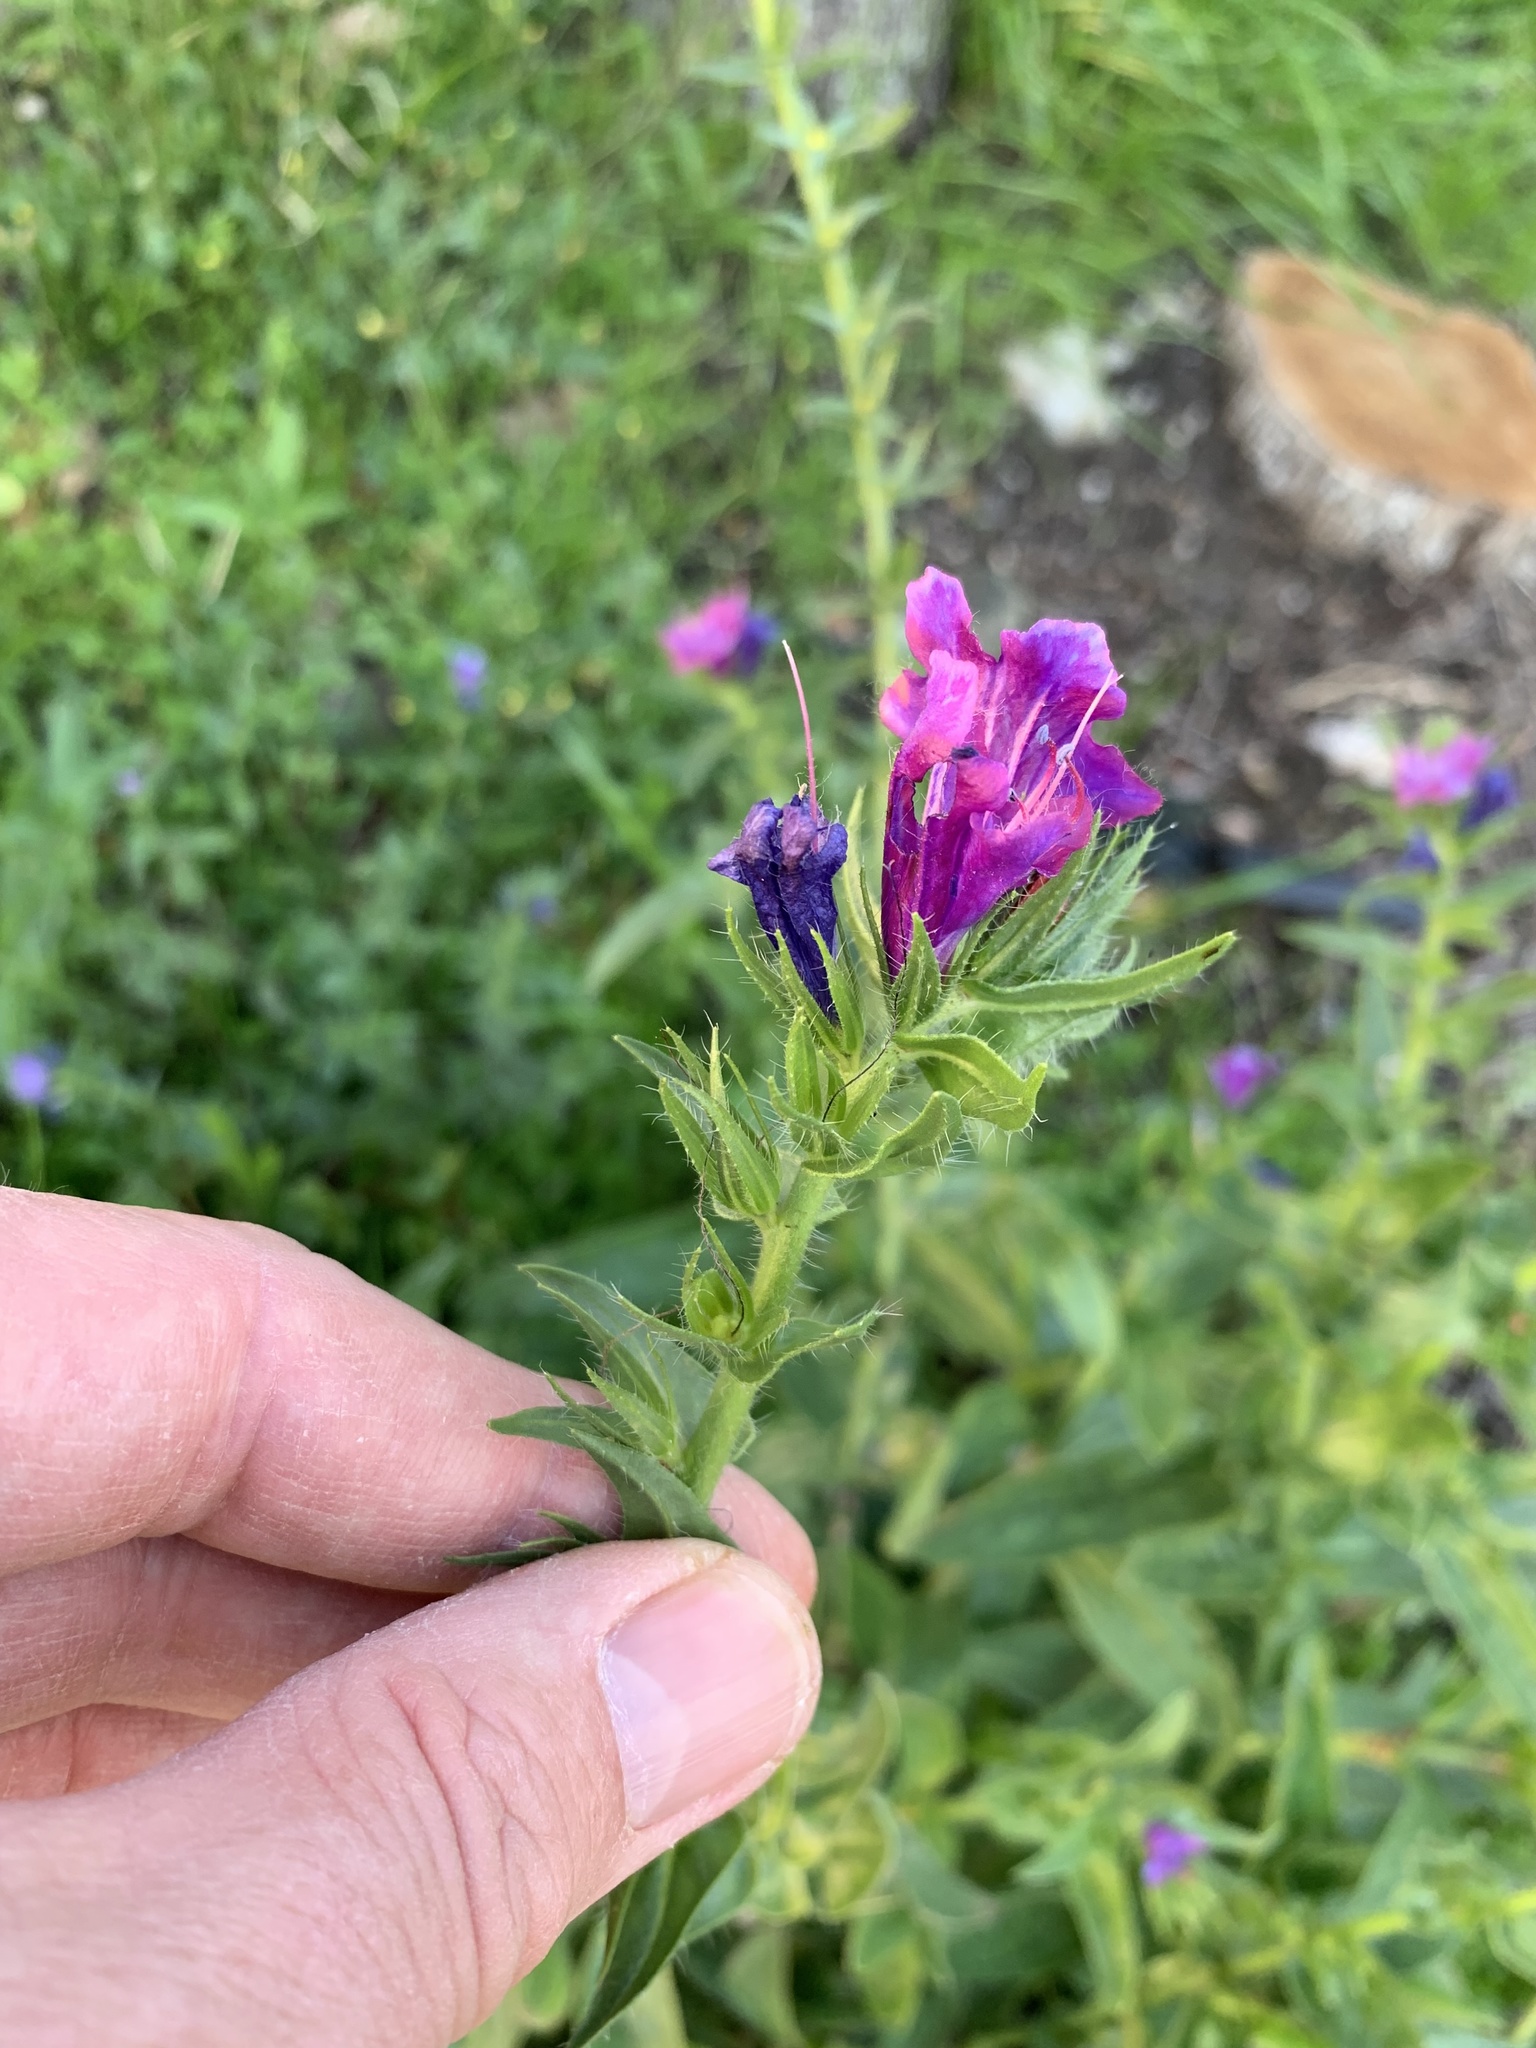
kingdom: Plantae
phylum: Tracheophyta
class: Magnoliopsida
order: Boraginales
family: Boraginaceae
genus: Echium
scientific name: Echium plantagineum
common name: Purple viper's-bugloss
